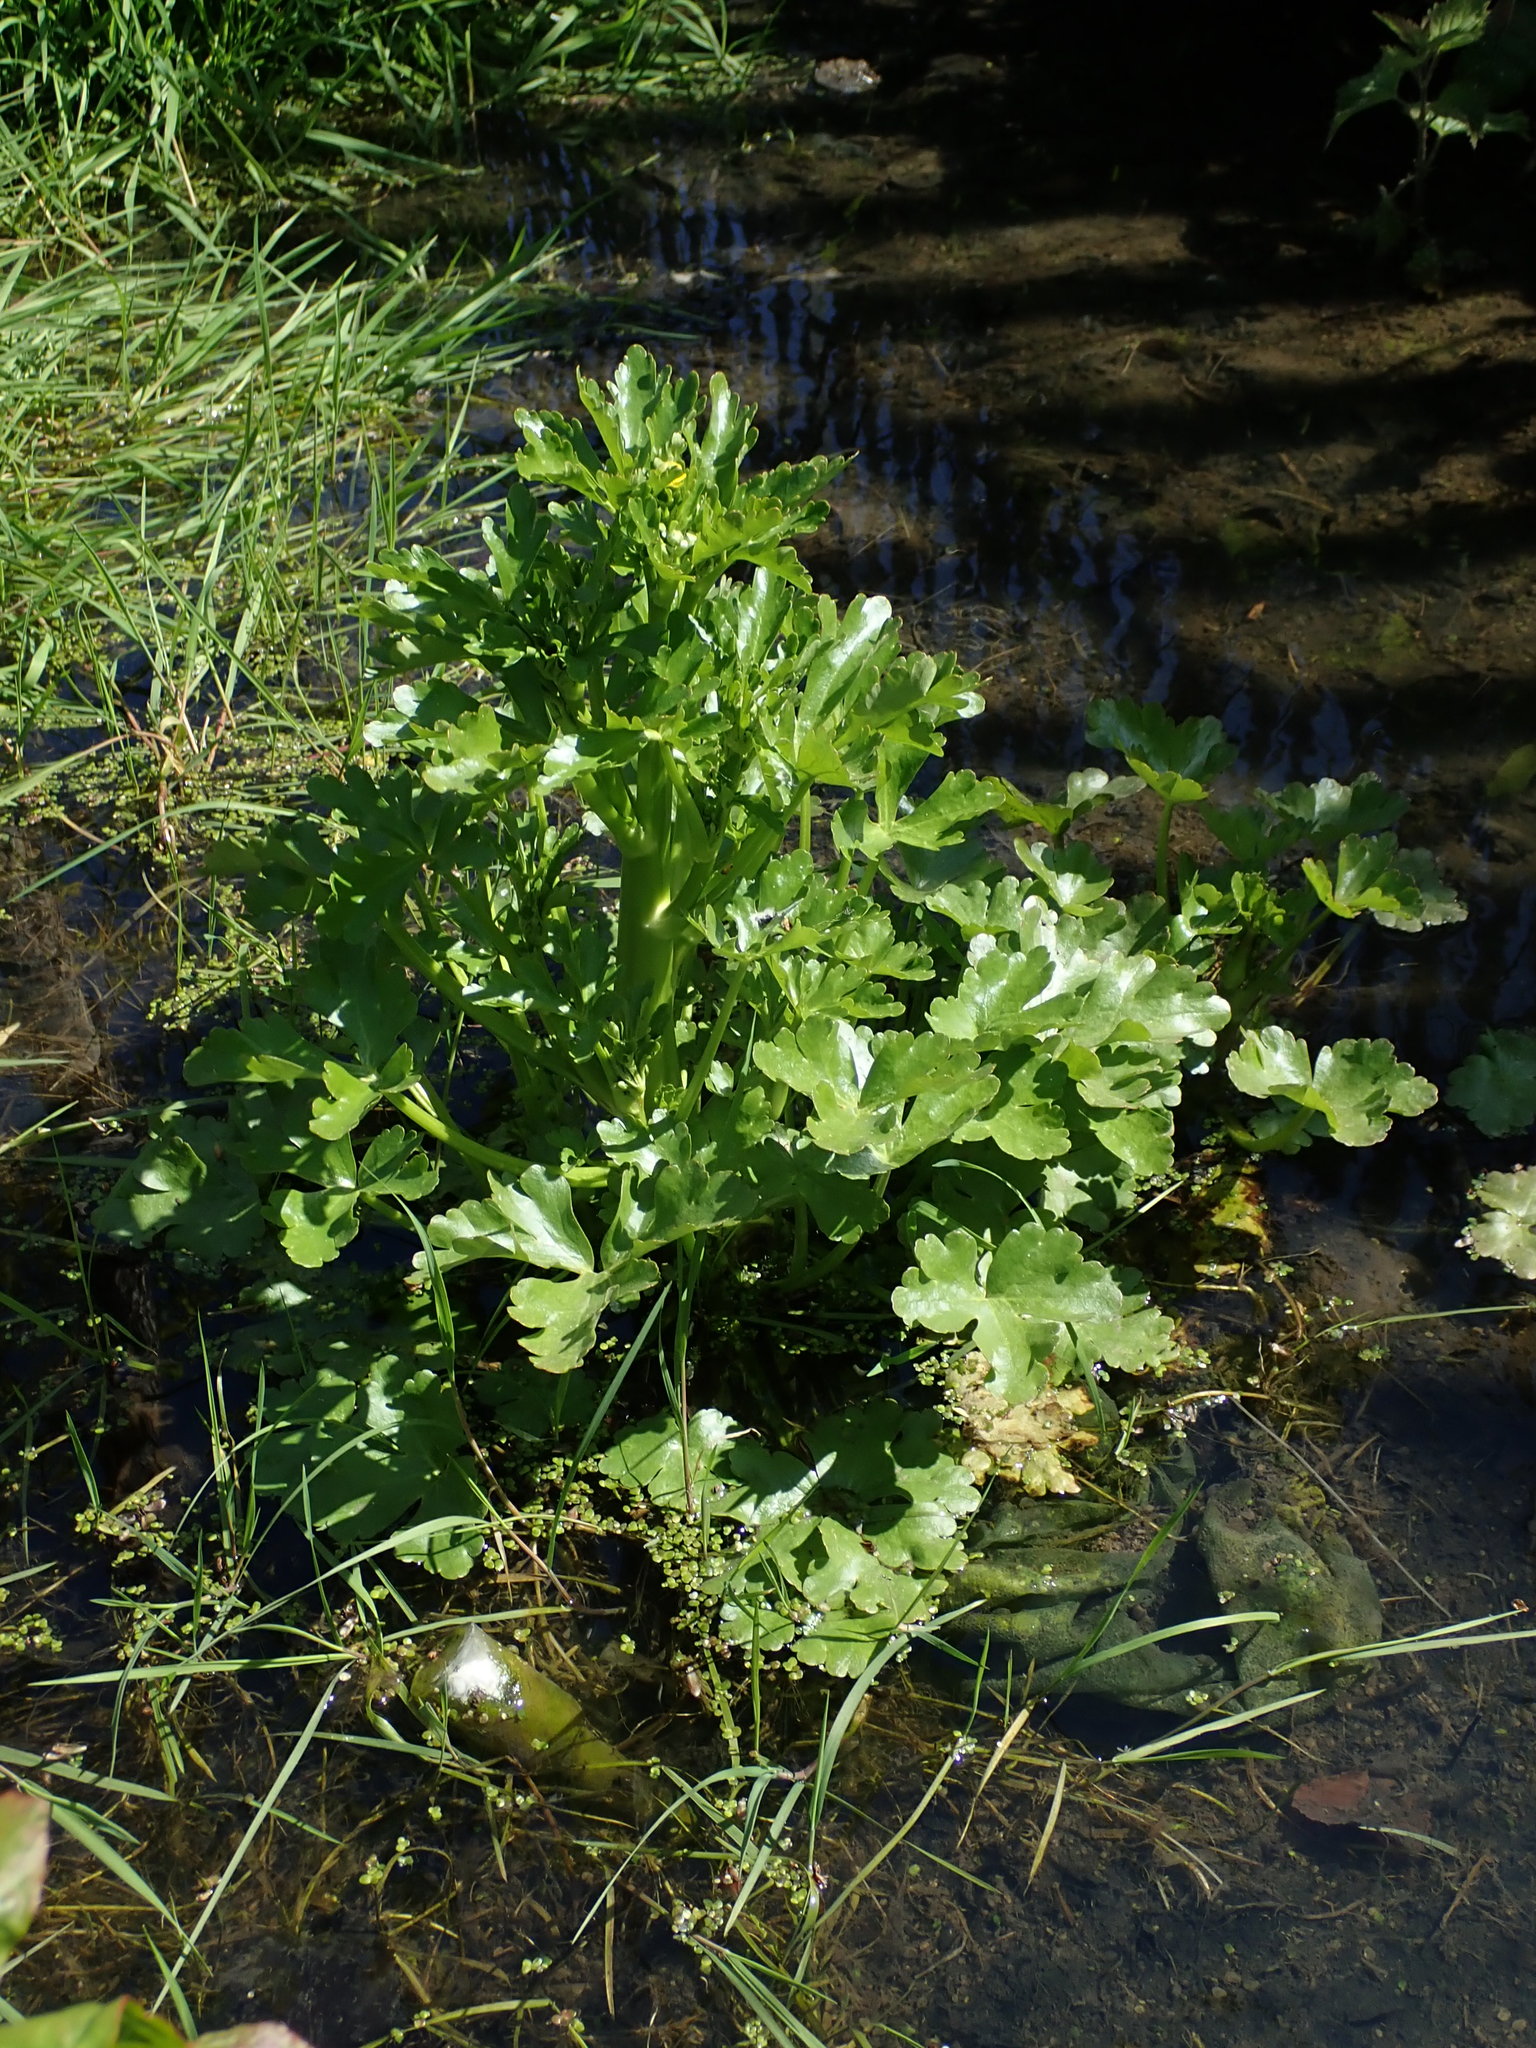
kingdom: Plantae
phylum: Tracheophyta
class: Magnoliopsida
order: Ranunculales
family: Ranunculaceae
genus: Ranunculus
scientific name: Ranunculus sceleratus
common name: Celery-leaved buttercup
